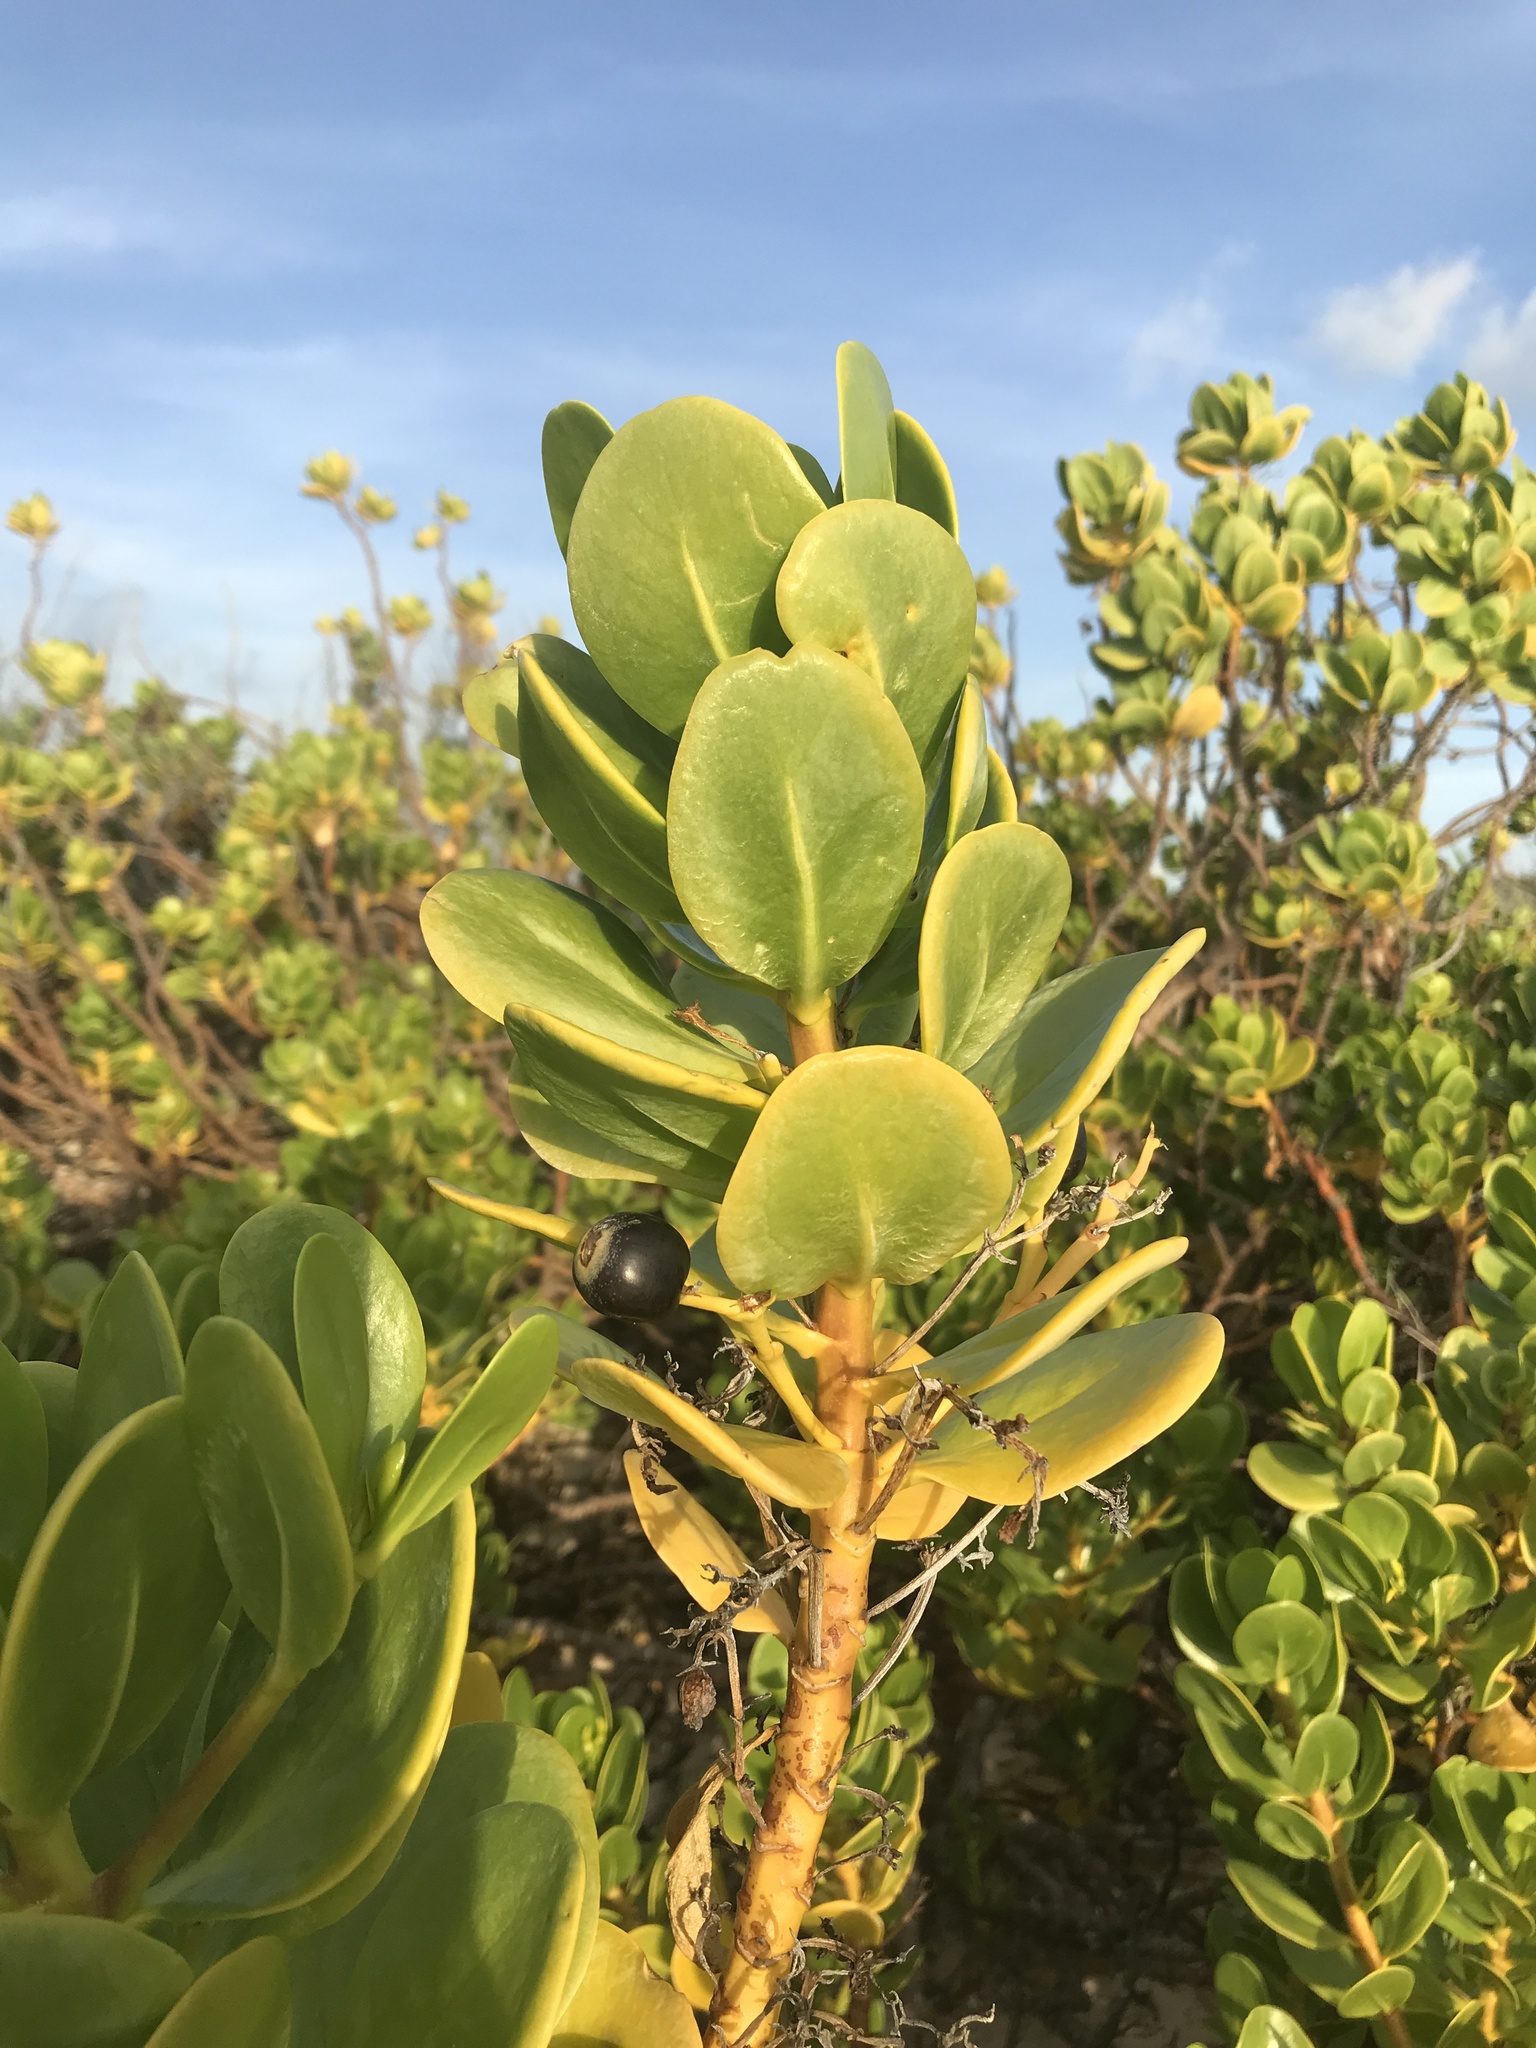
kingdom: Plantae
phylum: Tracheophyta
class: Magnoliopsida
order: Asterales
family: Goodeniaceae
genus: Scaevola
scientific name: Scaevola plumieri
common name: Gull feed
